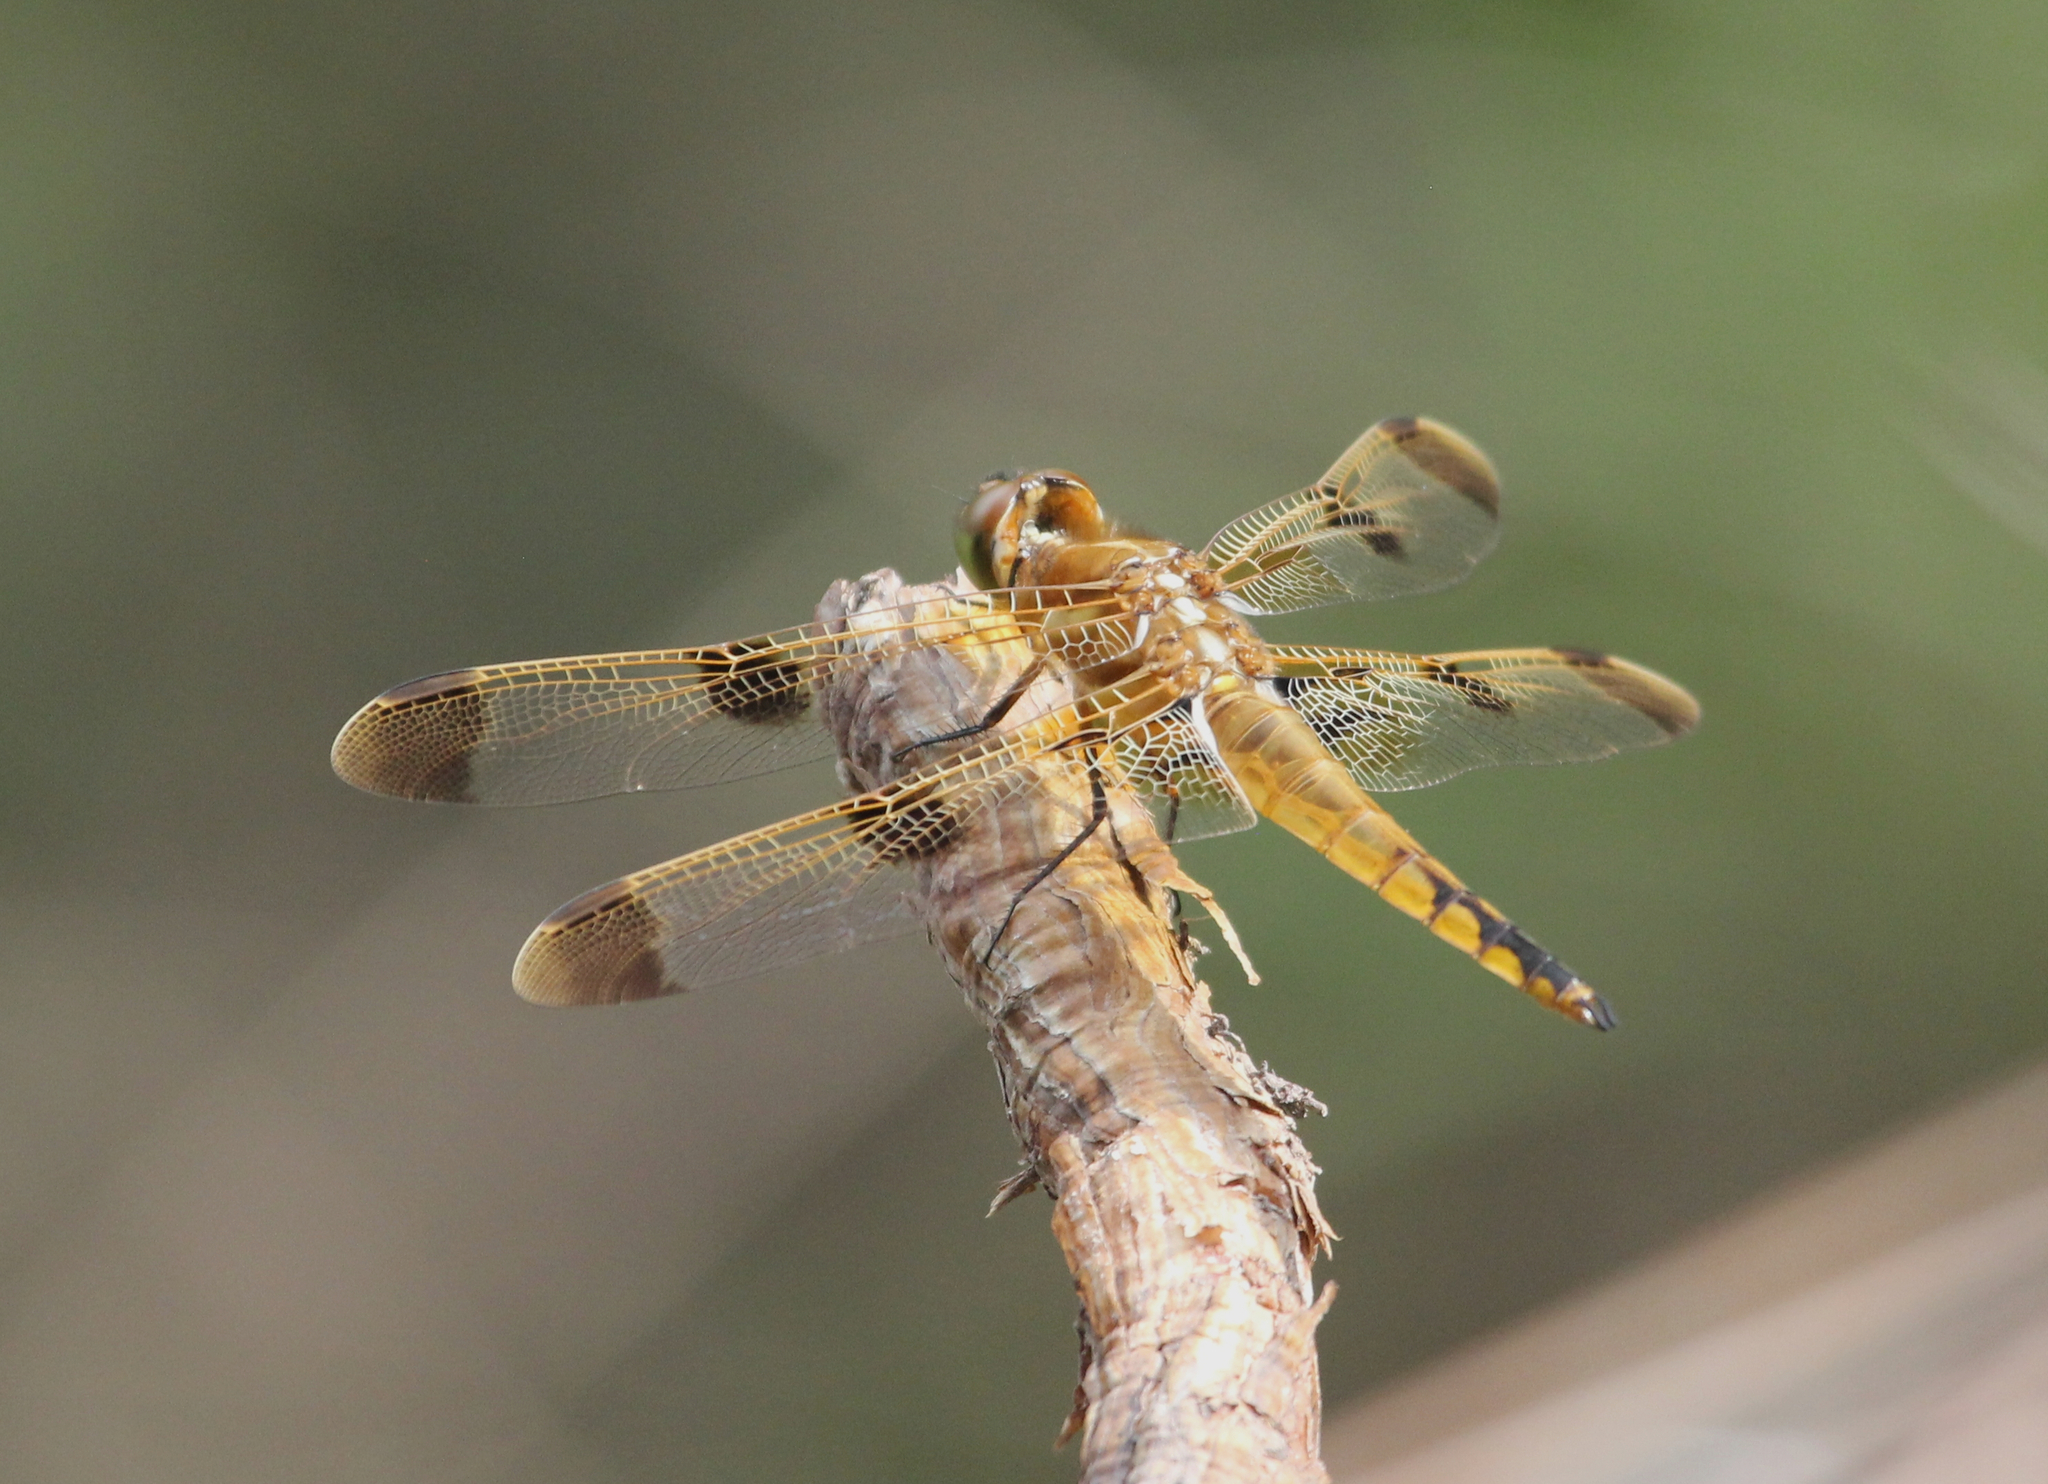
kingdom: Animalia
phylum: Arthropoda
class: Insecta
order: Odonata
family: Libellulidae
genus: Libellula
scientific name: Libellula semifasciata
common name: Painted skimmer
